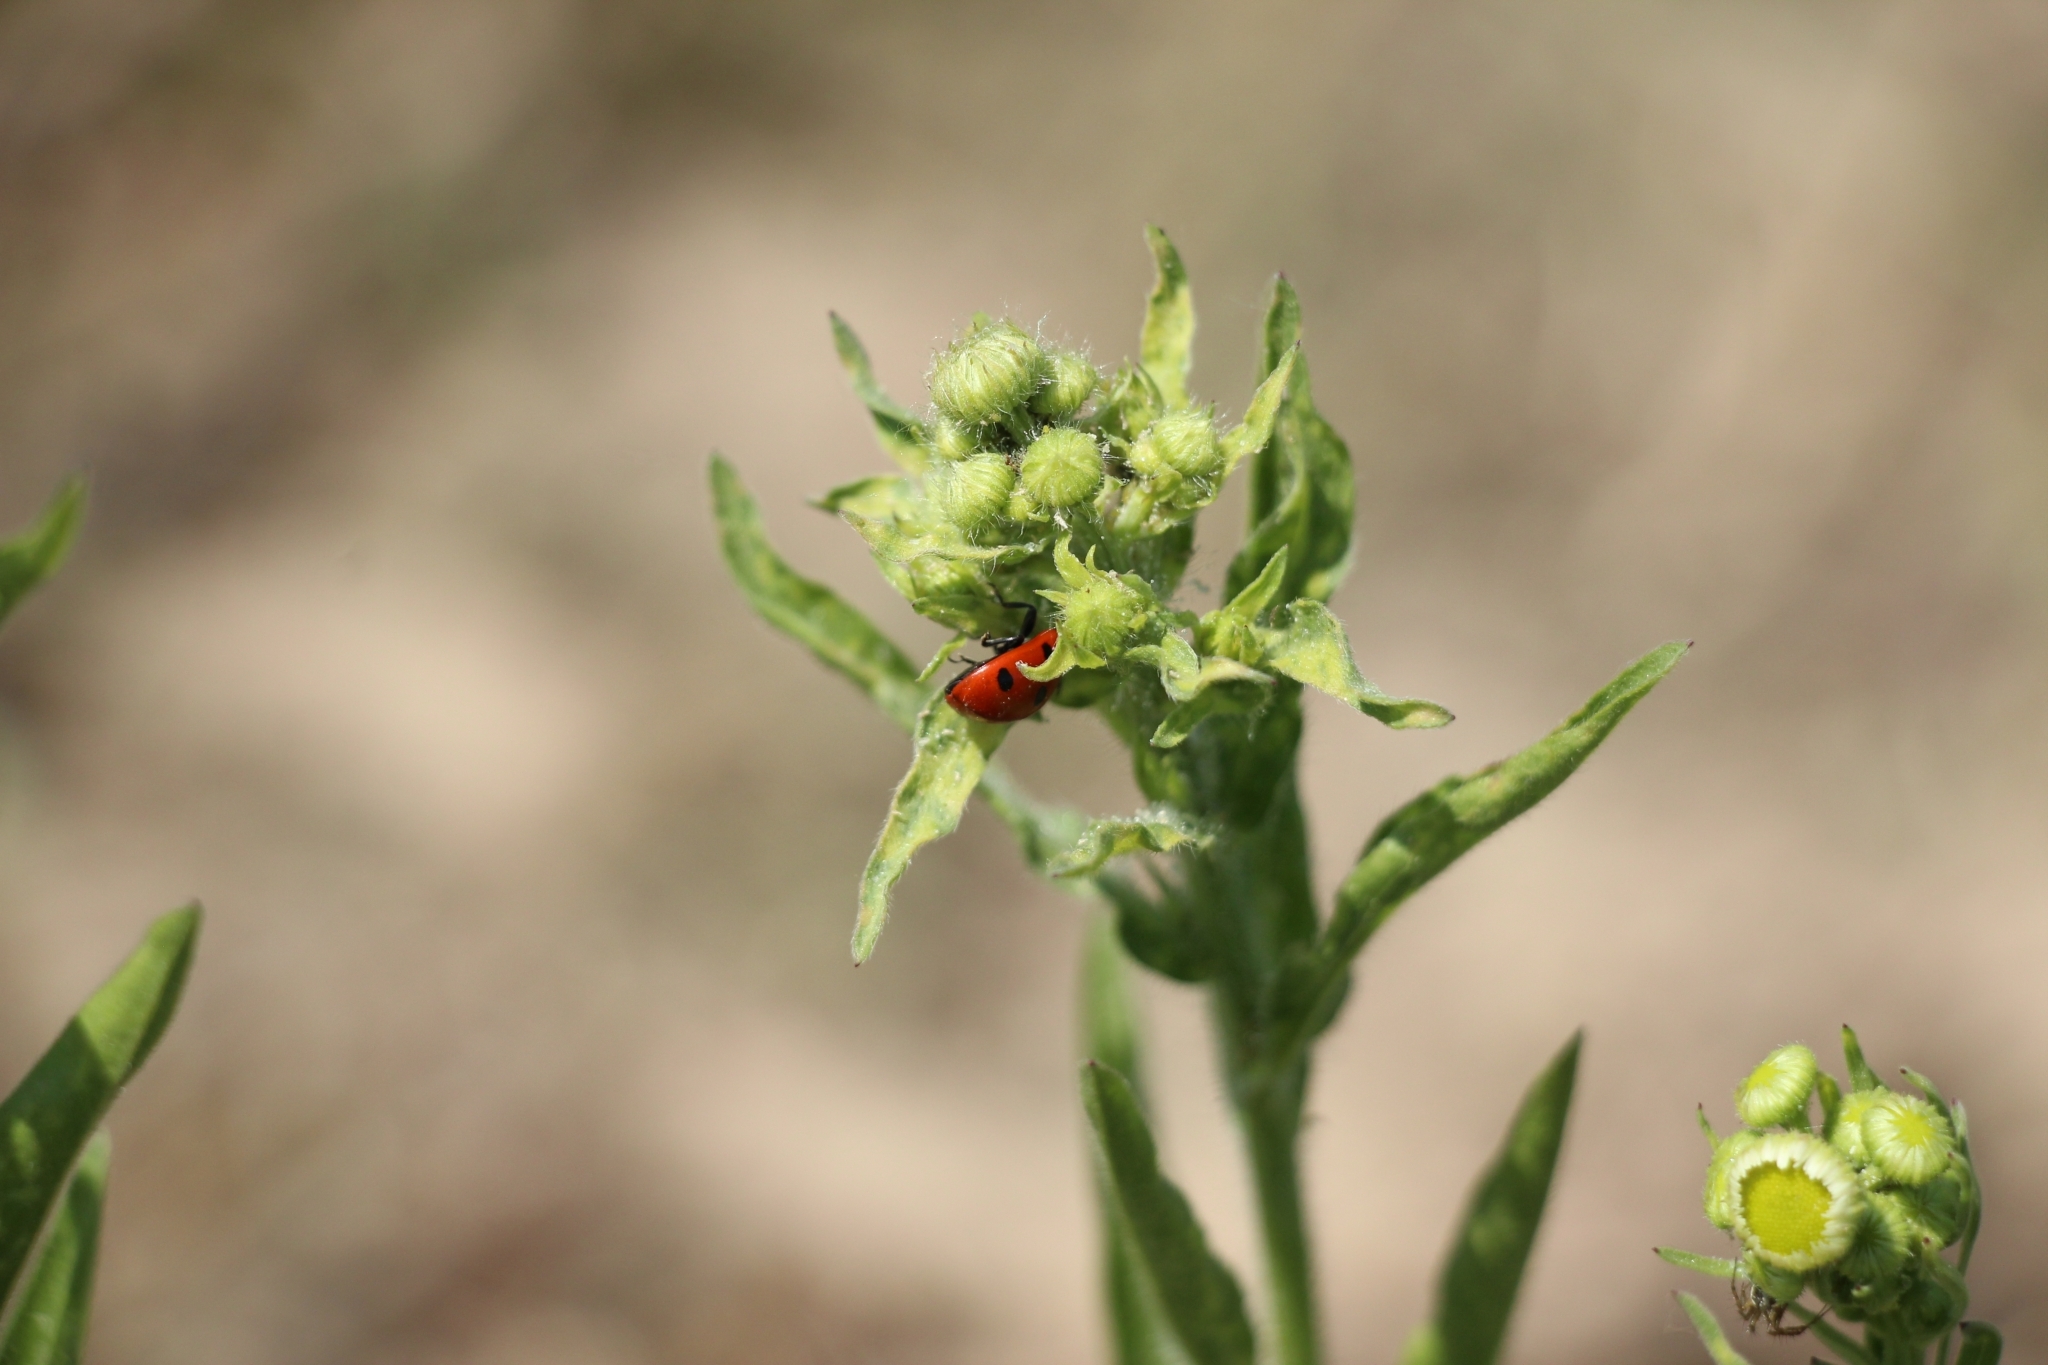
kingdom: Animalia
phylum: Arthropoda
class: Insecta
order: Coleoptera
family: Coccinellidae
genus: Coccinella
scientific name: Coccinella septempunctata
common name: Sevenspotted lady beetle
